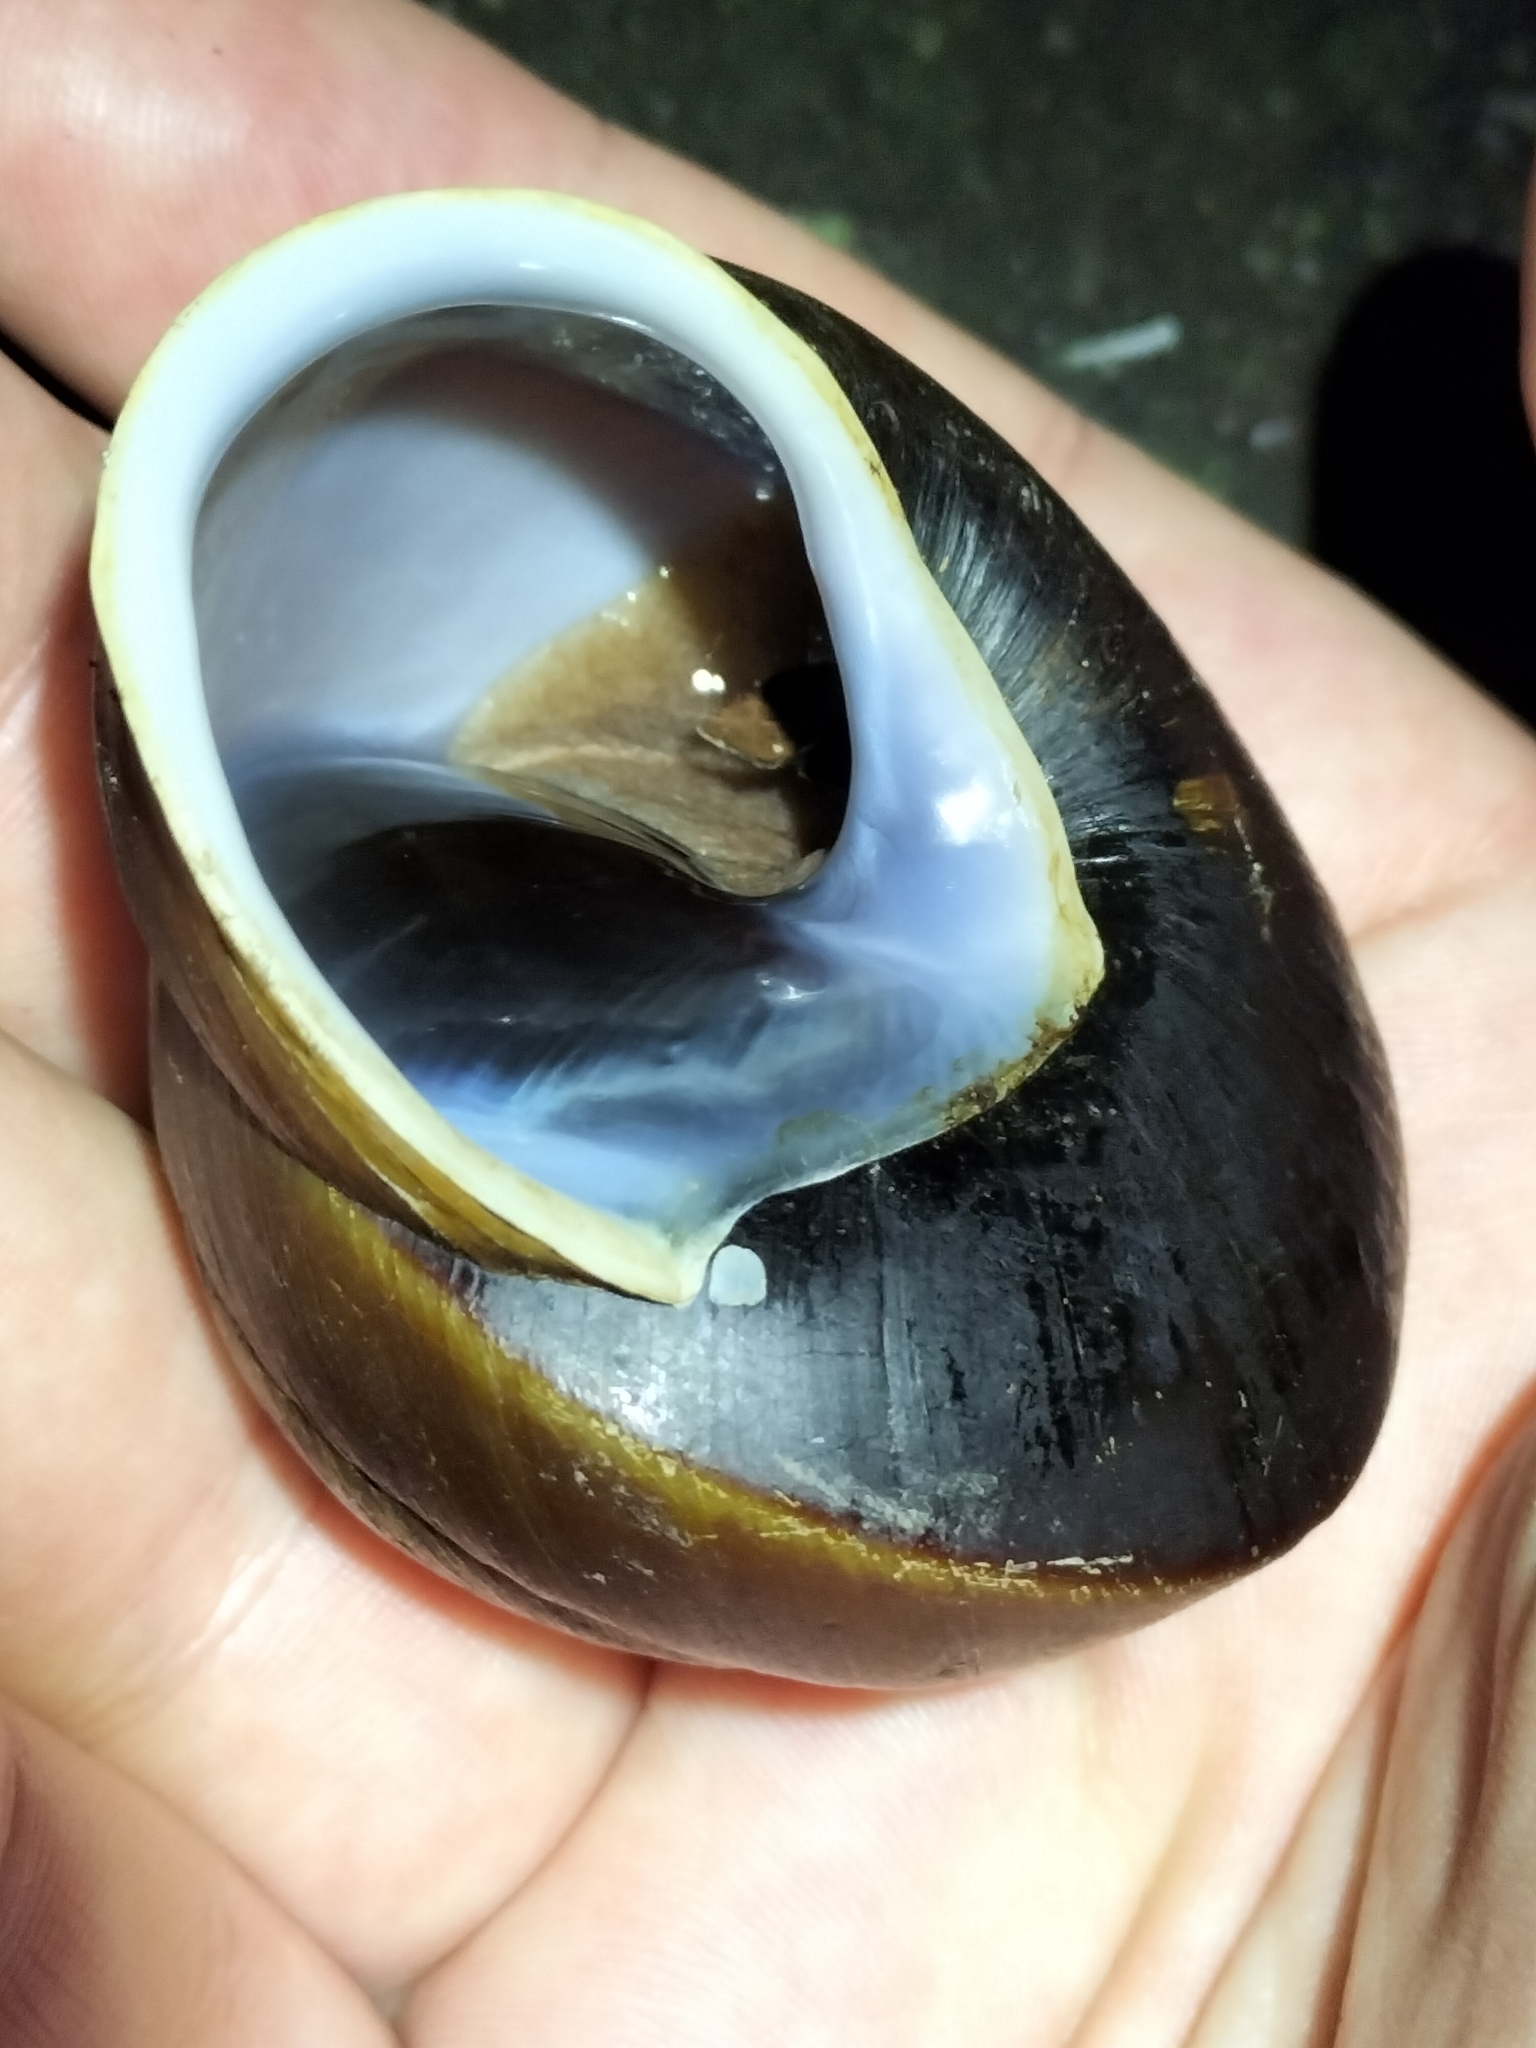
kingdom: Animalia
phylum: Mollusca
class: Gastropoda
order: Stylommatophora
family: Camaenidae
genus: Hadra
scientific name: Hadra webbi
